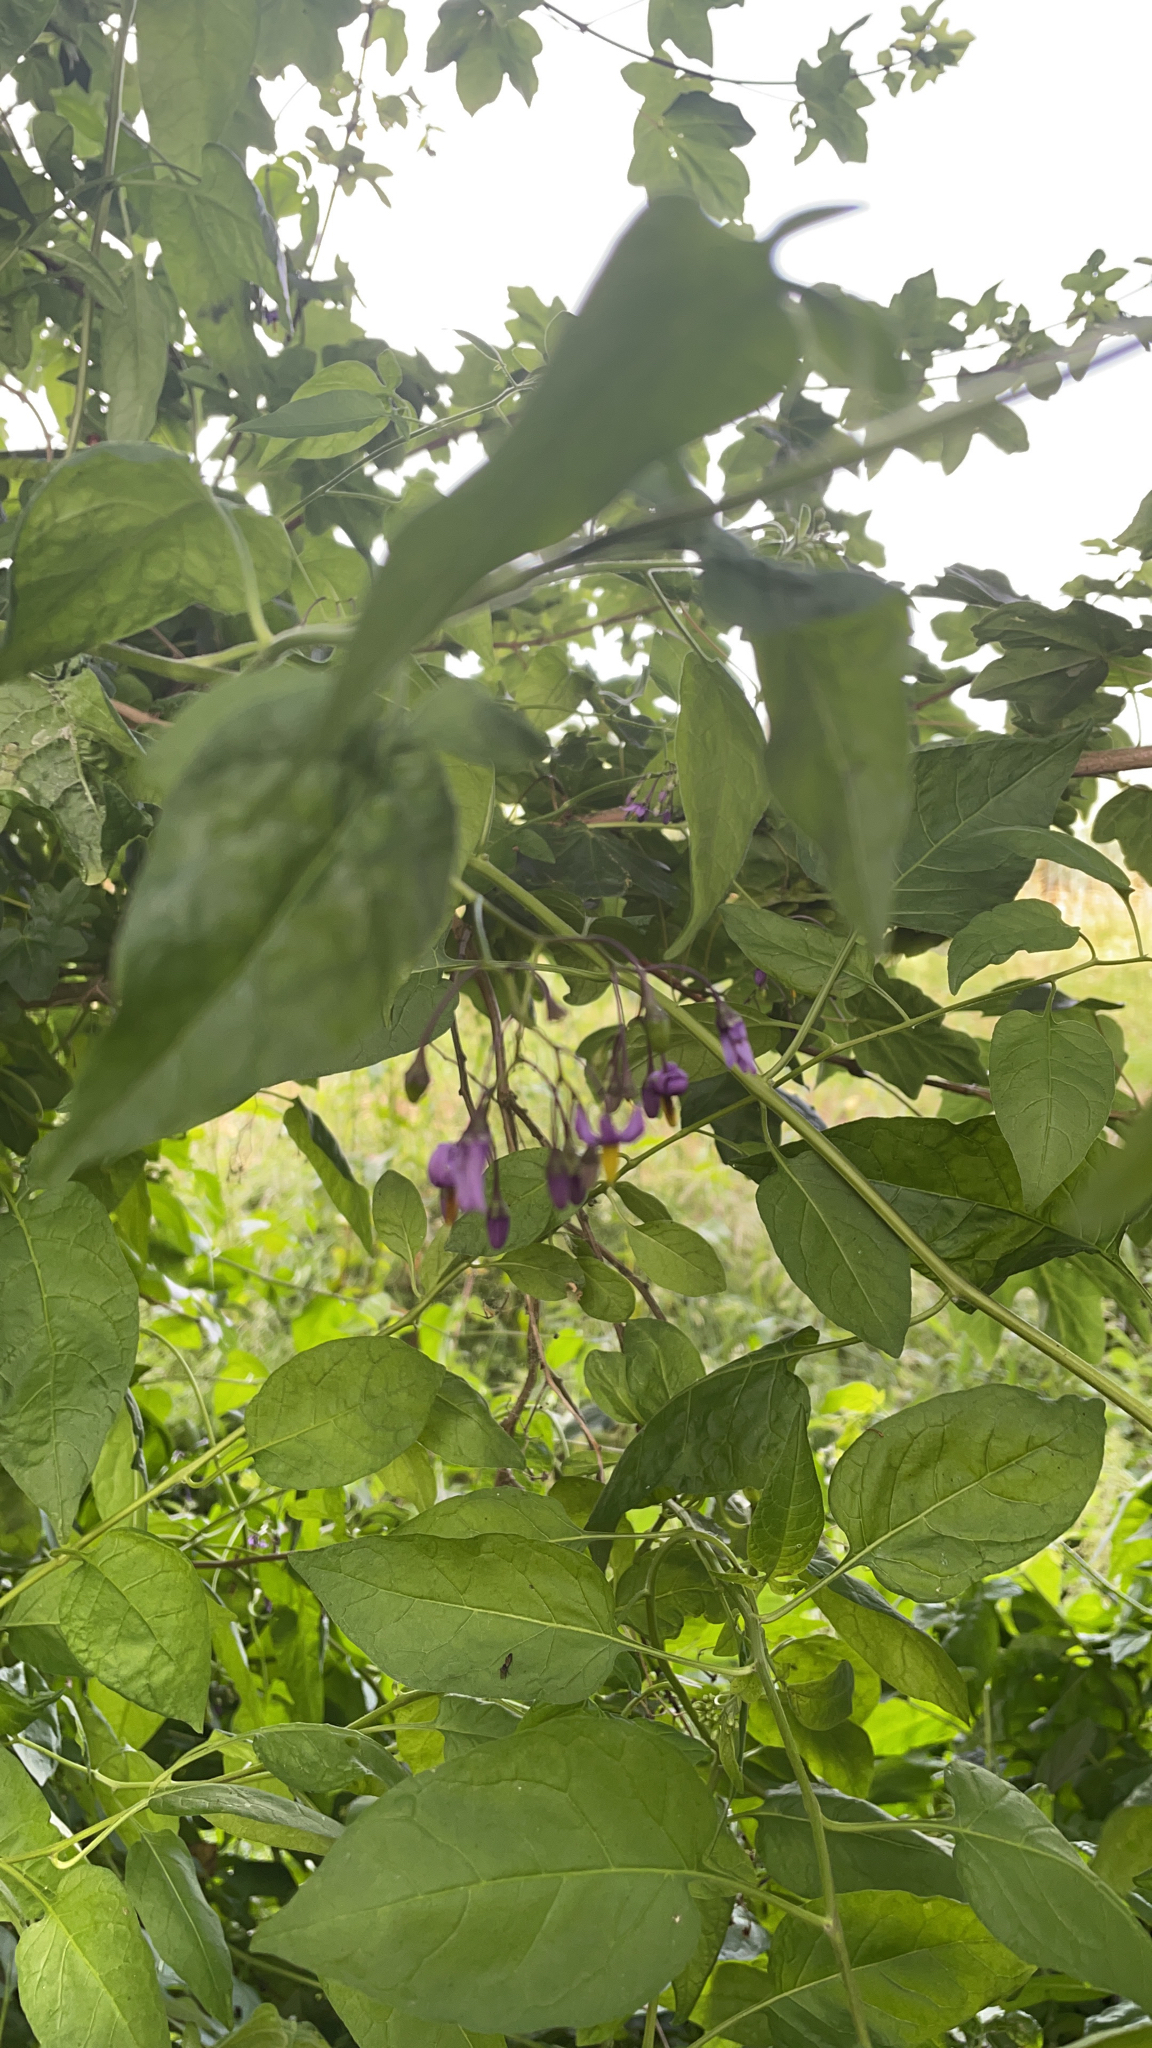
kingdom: Plantae
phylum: Tracheophyta
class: Magnoliopsida
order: Solanales
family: Solanaceae
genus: Solanum
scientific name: Solanum dulcamara
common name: Climbing nightshade
